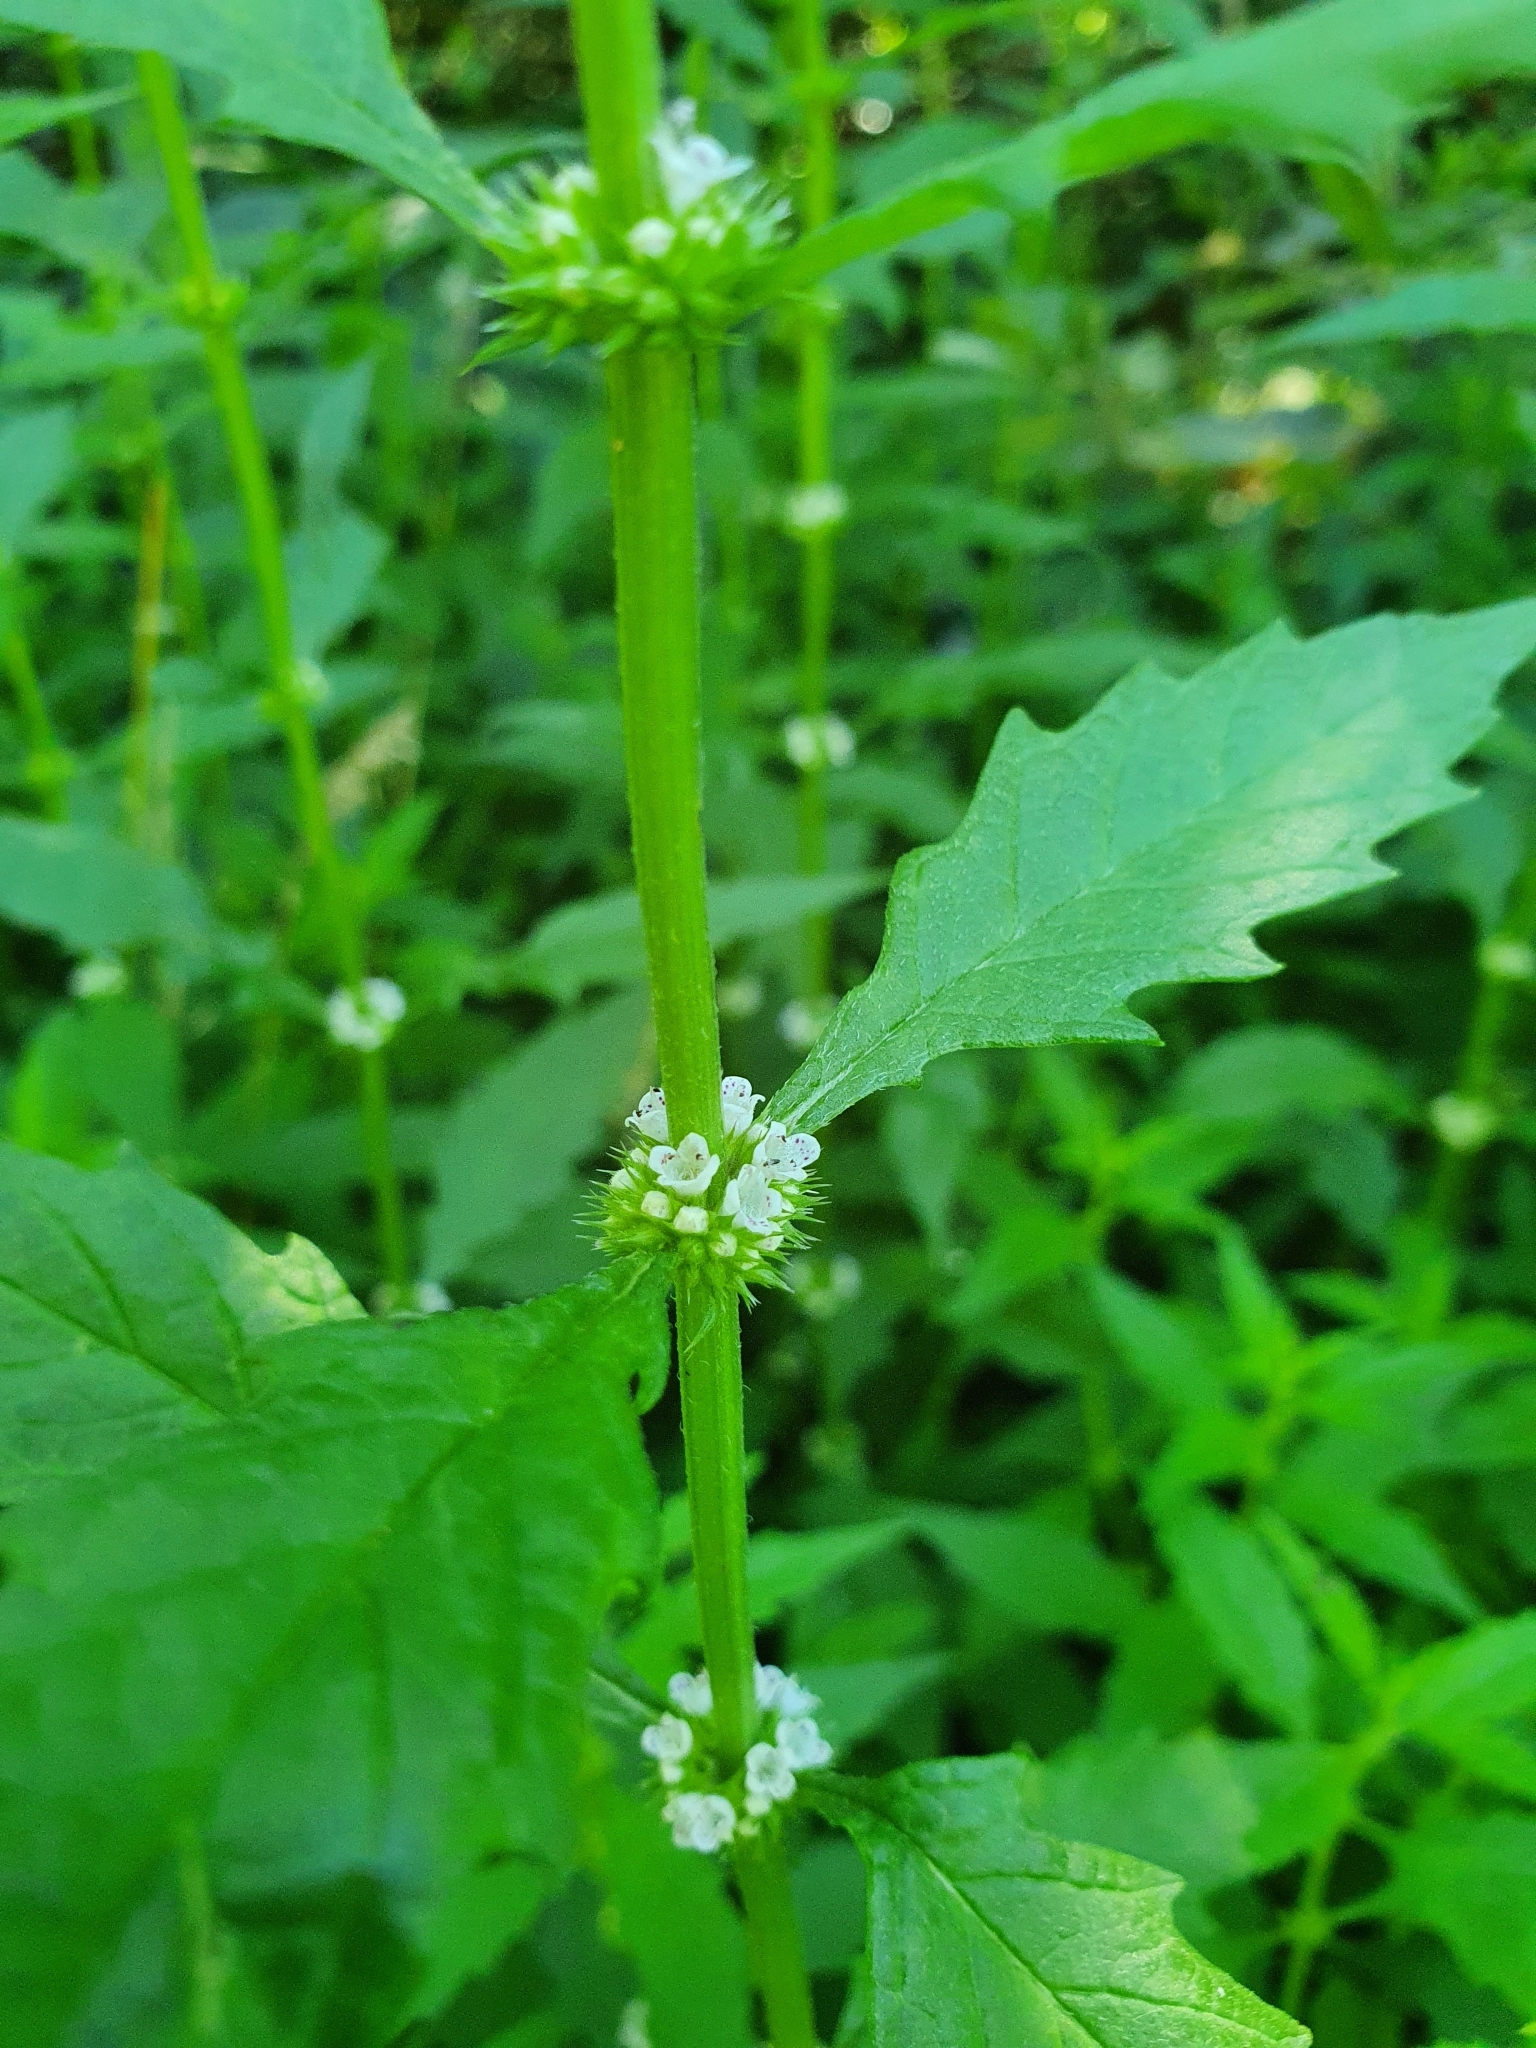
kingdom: Plantae
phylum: Tracheophyta
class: Magnoliopsida
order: Lamiales
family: Lamiaceae
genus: Lycopus
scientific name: Lycopus europaeus
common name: European bugleweed
